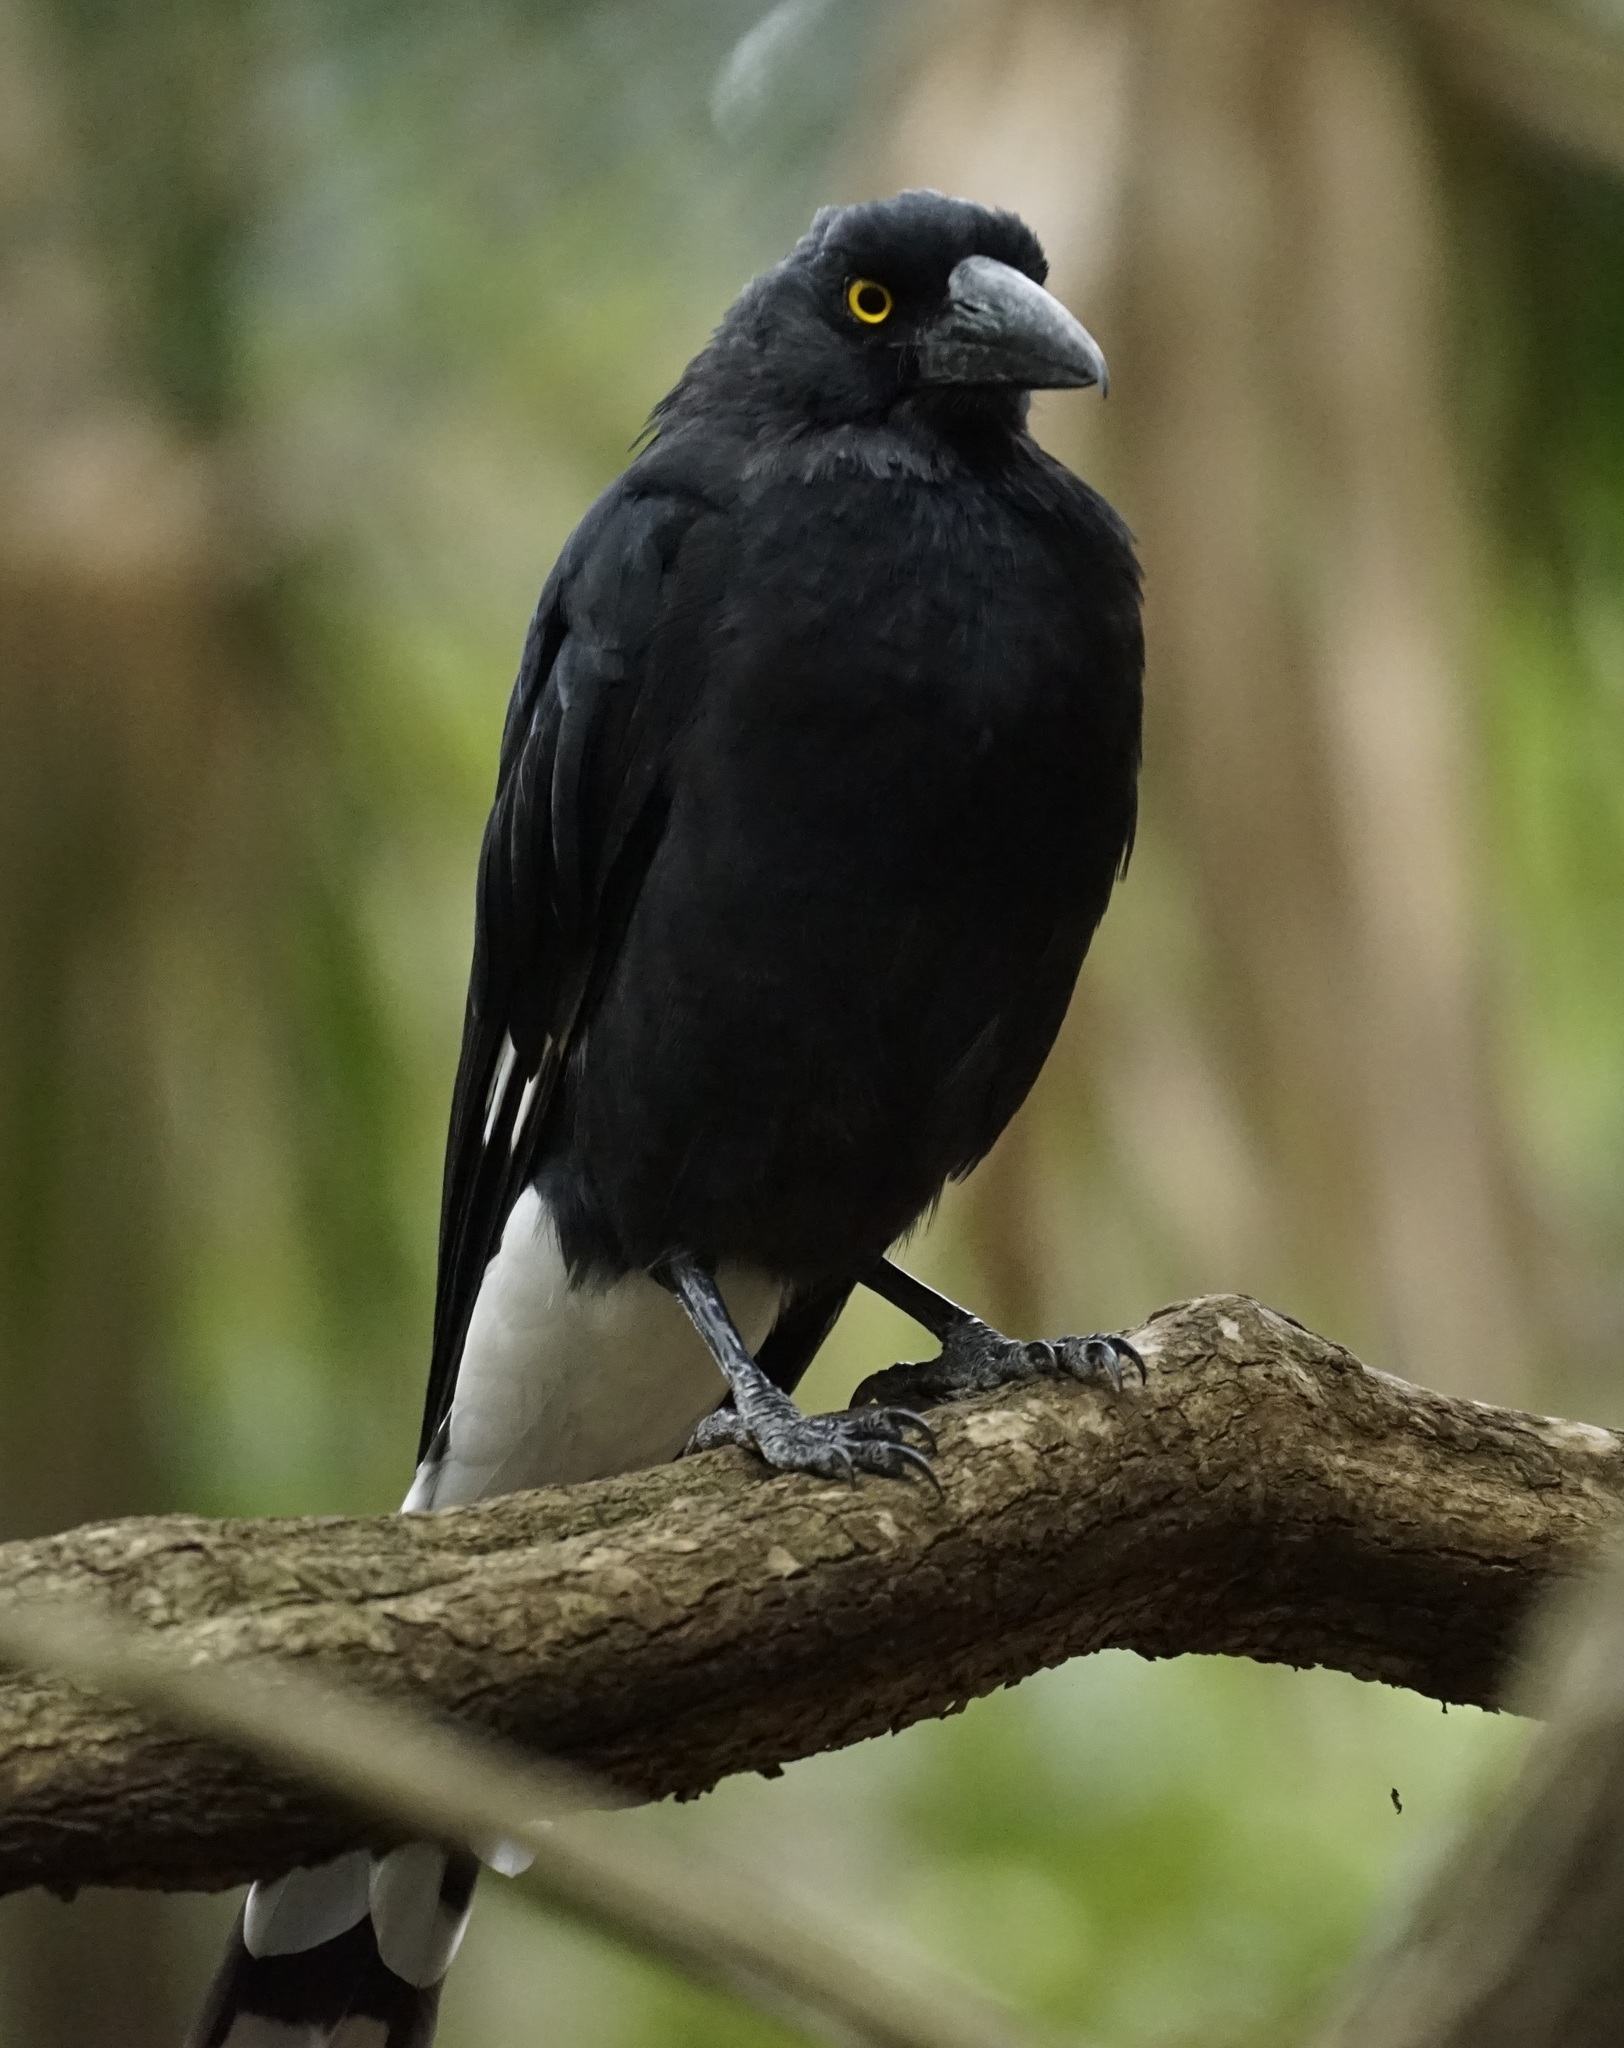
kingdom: Animalia
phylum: Chordata
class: Aves
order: Passeriformes
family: Cracticidae
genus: Strepera
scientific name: Strepera graculina
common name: Pied currawong
